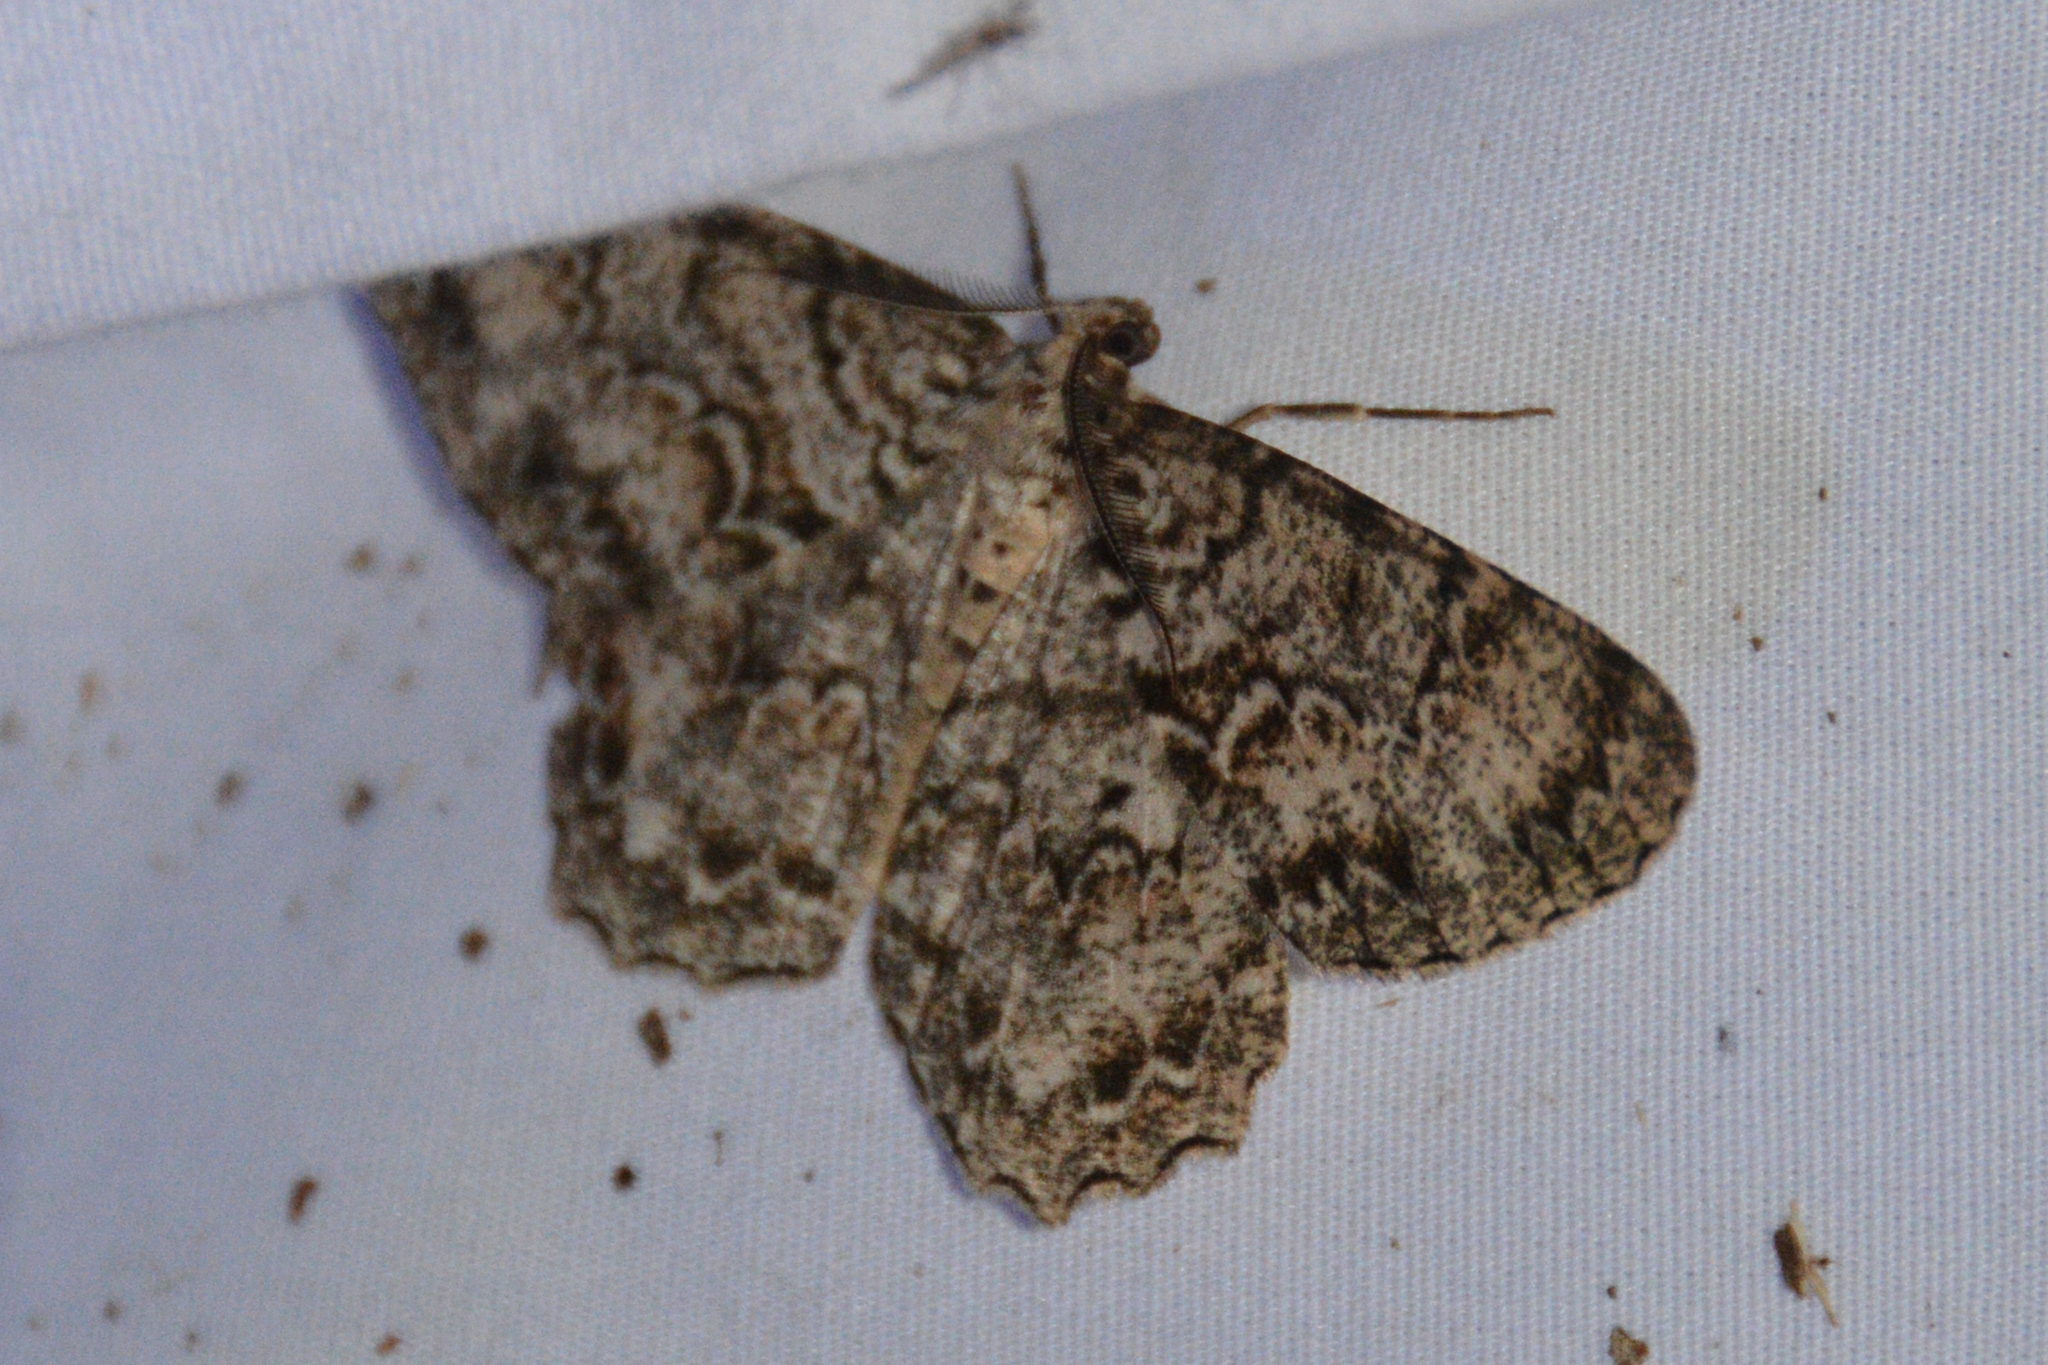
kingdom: Animalia
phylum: Arthropoda
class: Insecta
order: Lepidoptera
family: Geometridae
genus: Epimecis
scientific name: Epimecis hortaria
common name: Tulip-tree beauty
